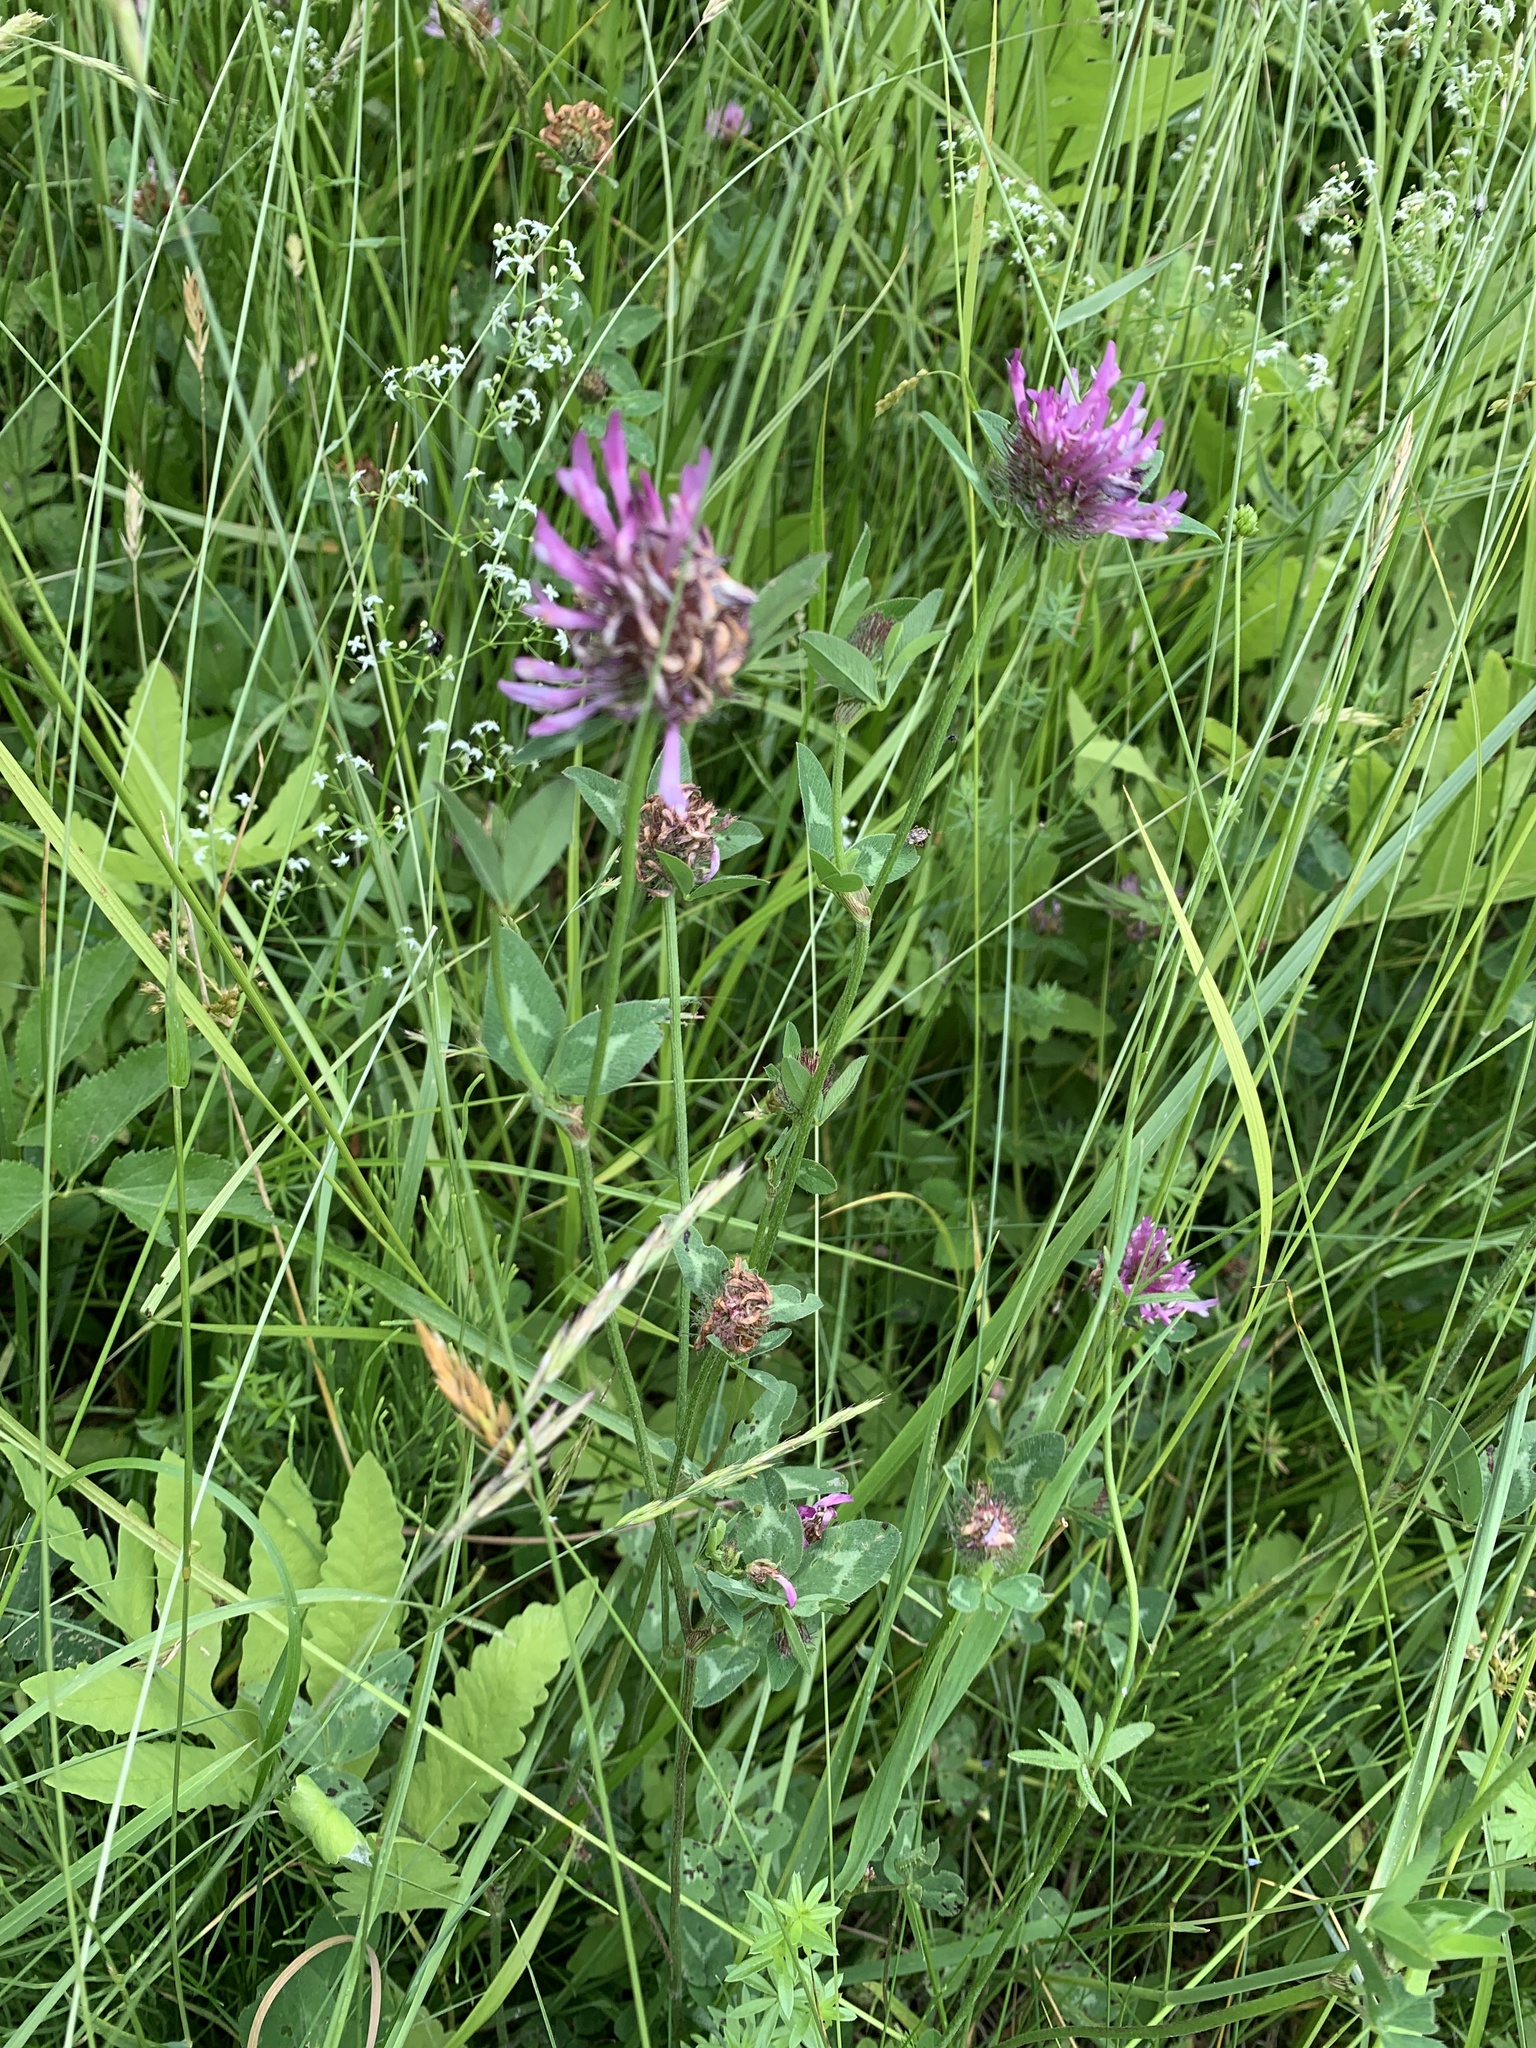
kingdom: Plantae
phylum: Tracheophyta
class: Magnoliopsida
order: Fabales
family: Fabaceae
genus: Trifolium
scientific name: Trifolium pratense
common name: Red clover
